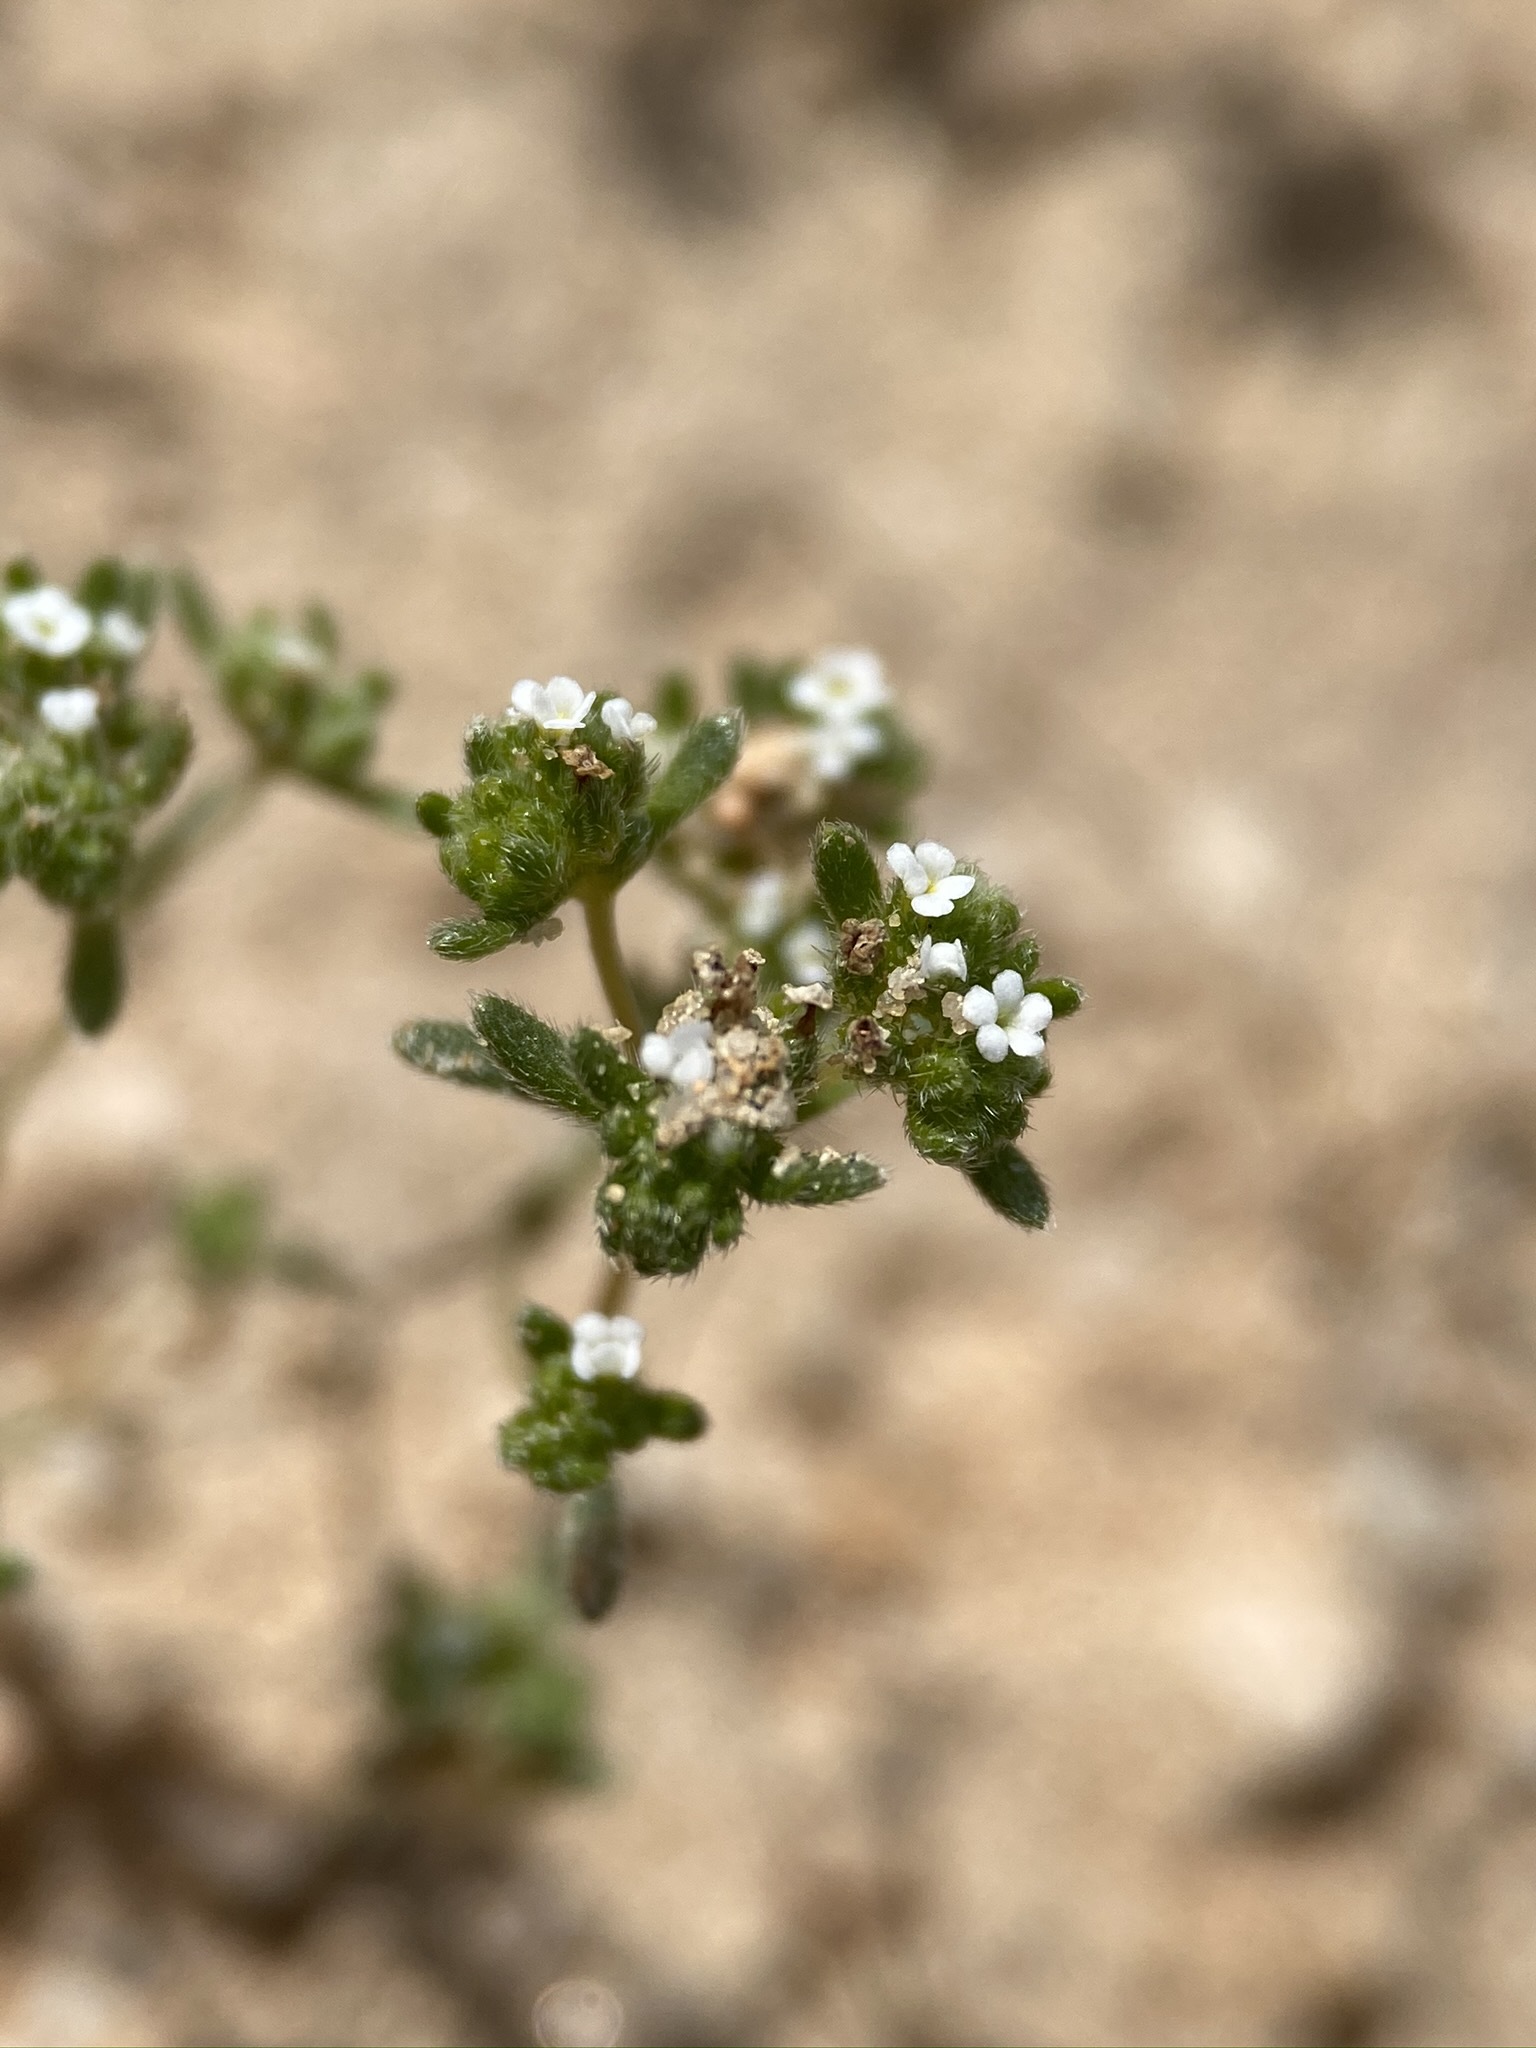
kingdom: Plantae
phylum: Tracheophyta
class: Magnoliopsida
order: Boraginales
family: Boraginaceae
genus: Eremocarya
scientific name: Eremocarya micrantha
